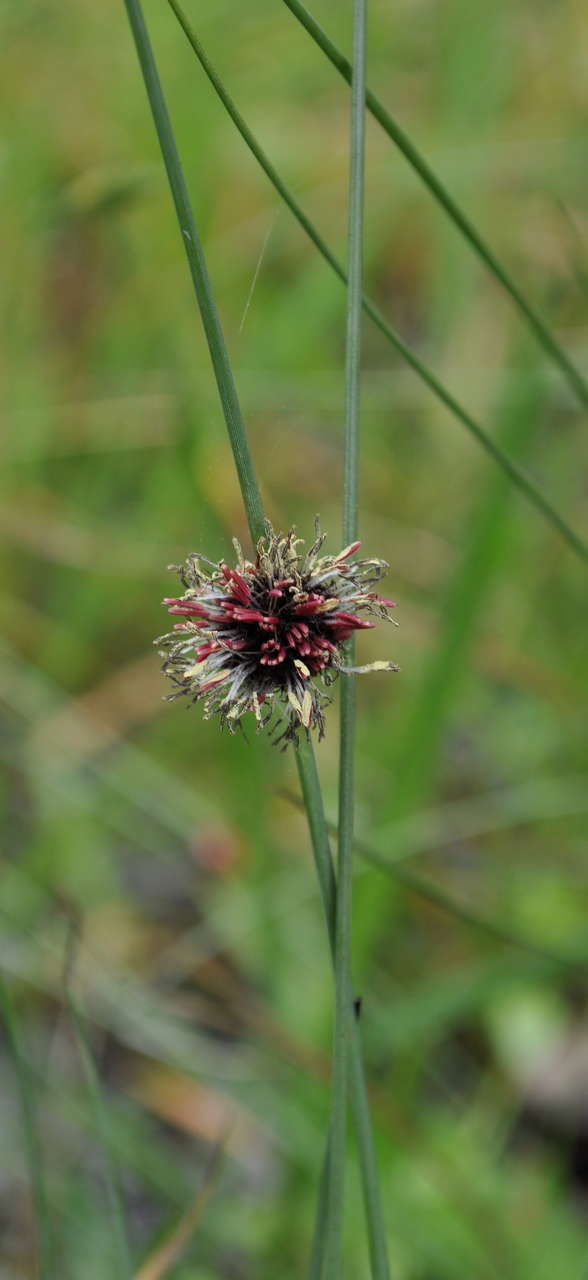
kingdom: Plantae
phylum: Tracheophyta
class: Liliopsida
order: Poales
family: Cyperaceae
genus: Chorizandra
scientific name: Chorizandra enodis
